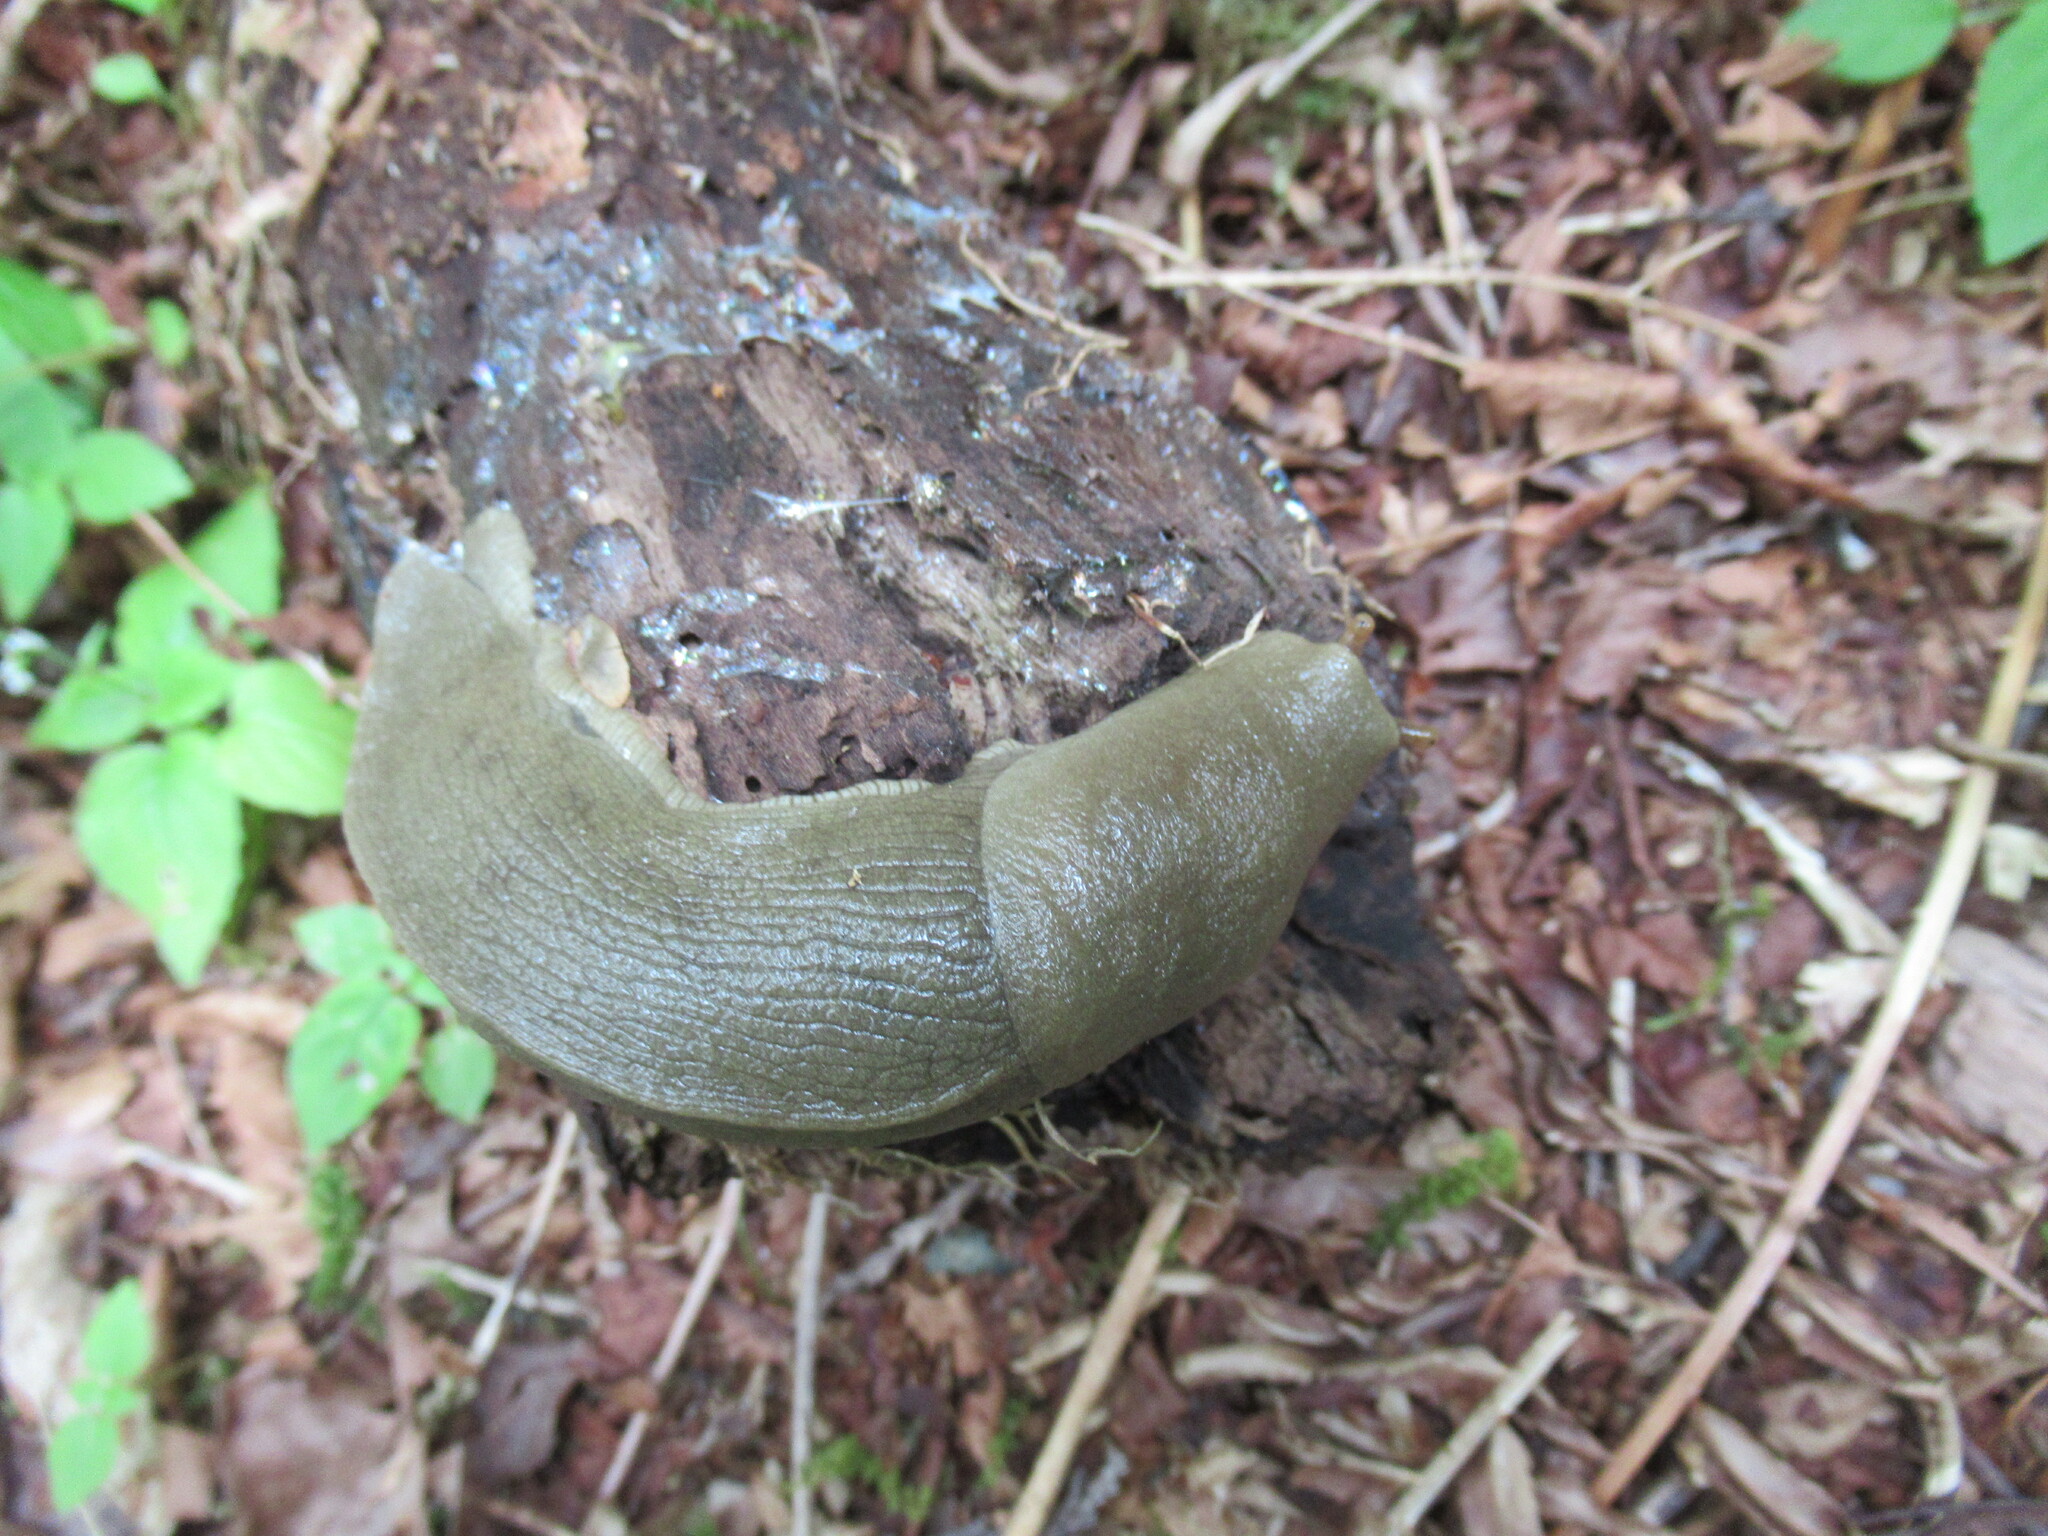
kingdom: Animalia
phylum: Mollusca
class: Gastropoda
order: Stylommatophora
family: Ariolimacidae
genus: Ariolimax
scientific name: Ariolimax columbianus
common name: Pacific banana slug
